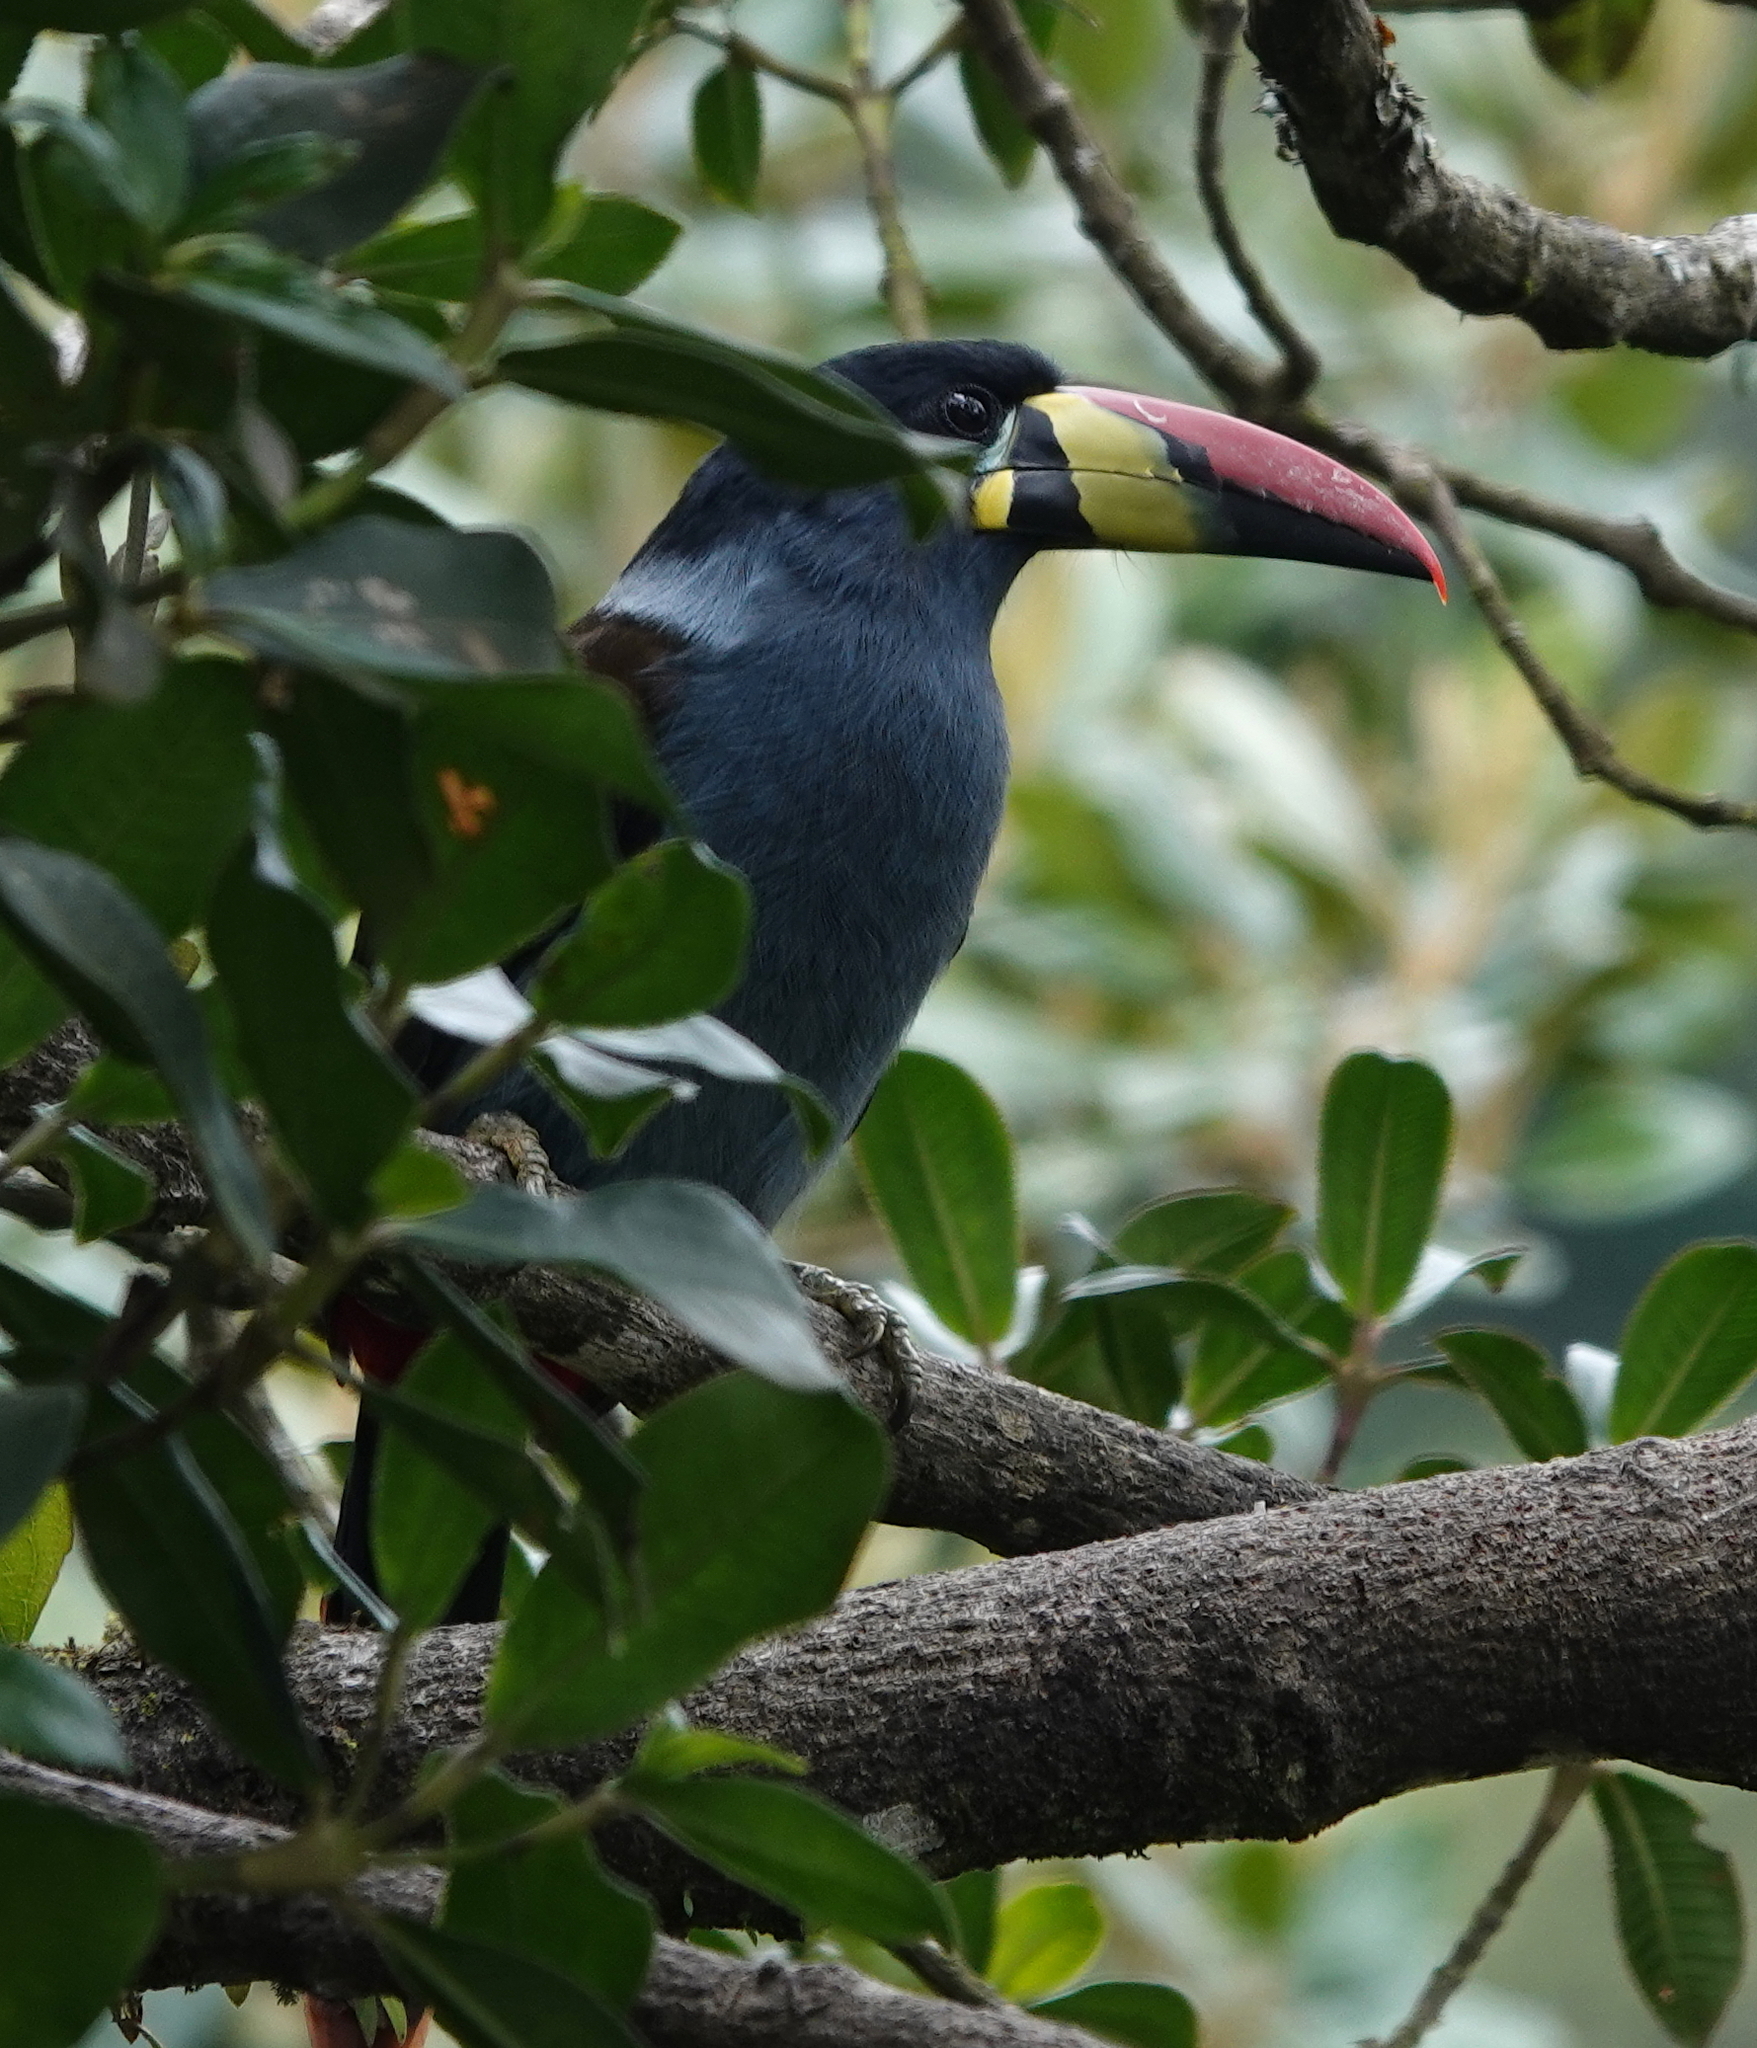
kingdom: Animalia
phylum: Chordata
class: Aves
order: Piciformes
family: Ramphastidae
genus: Andigena
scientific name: Andigena hypoglauca
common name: Grey-breasted mountain toucan
